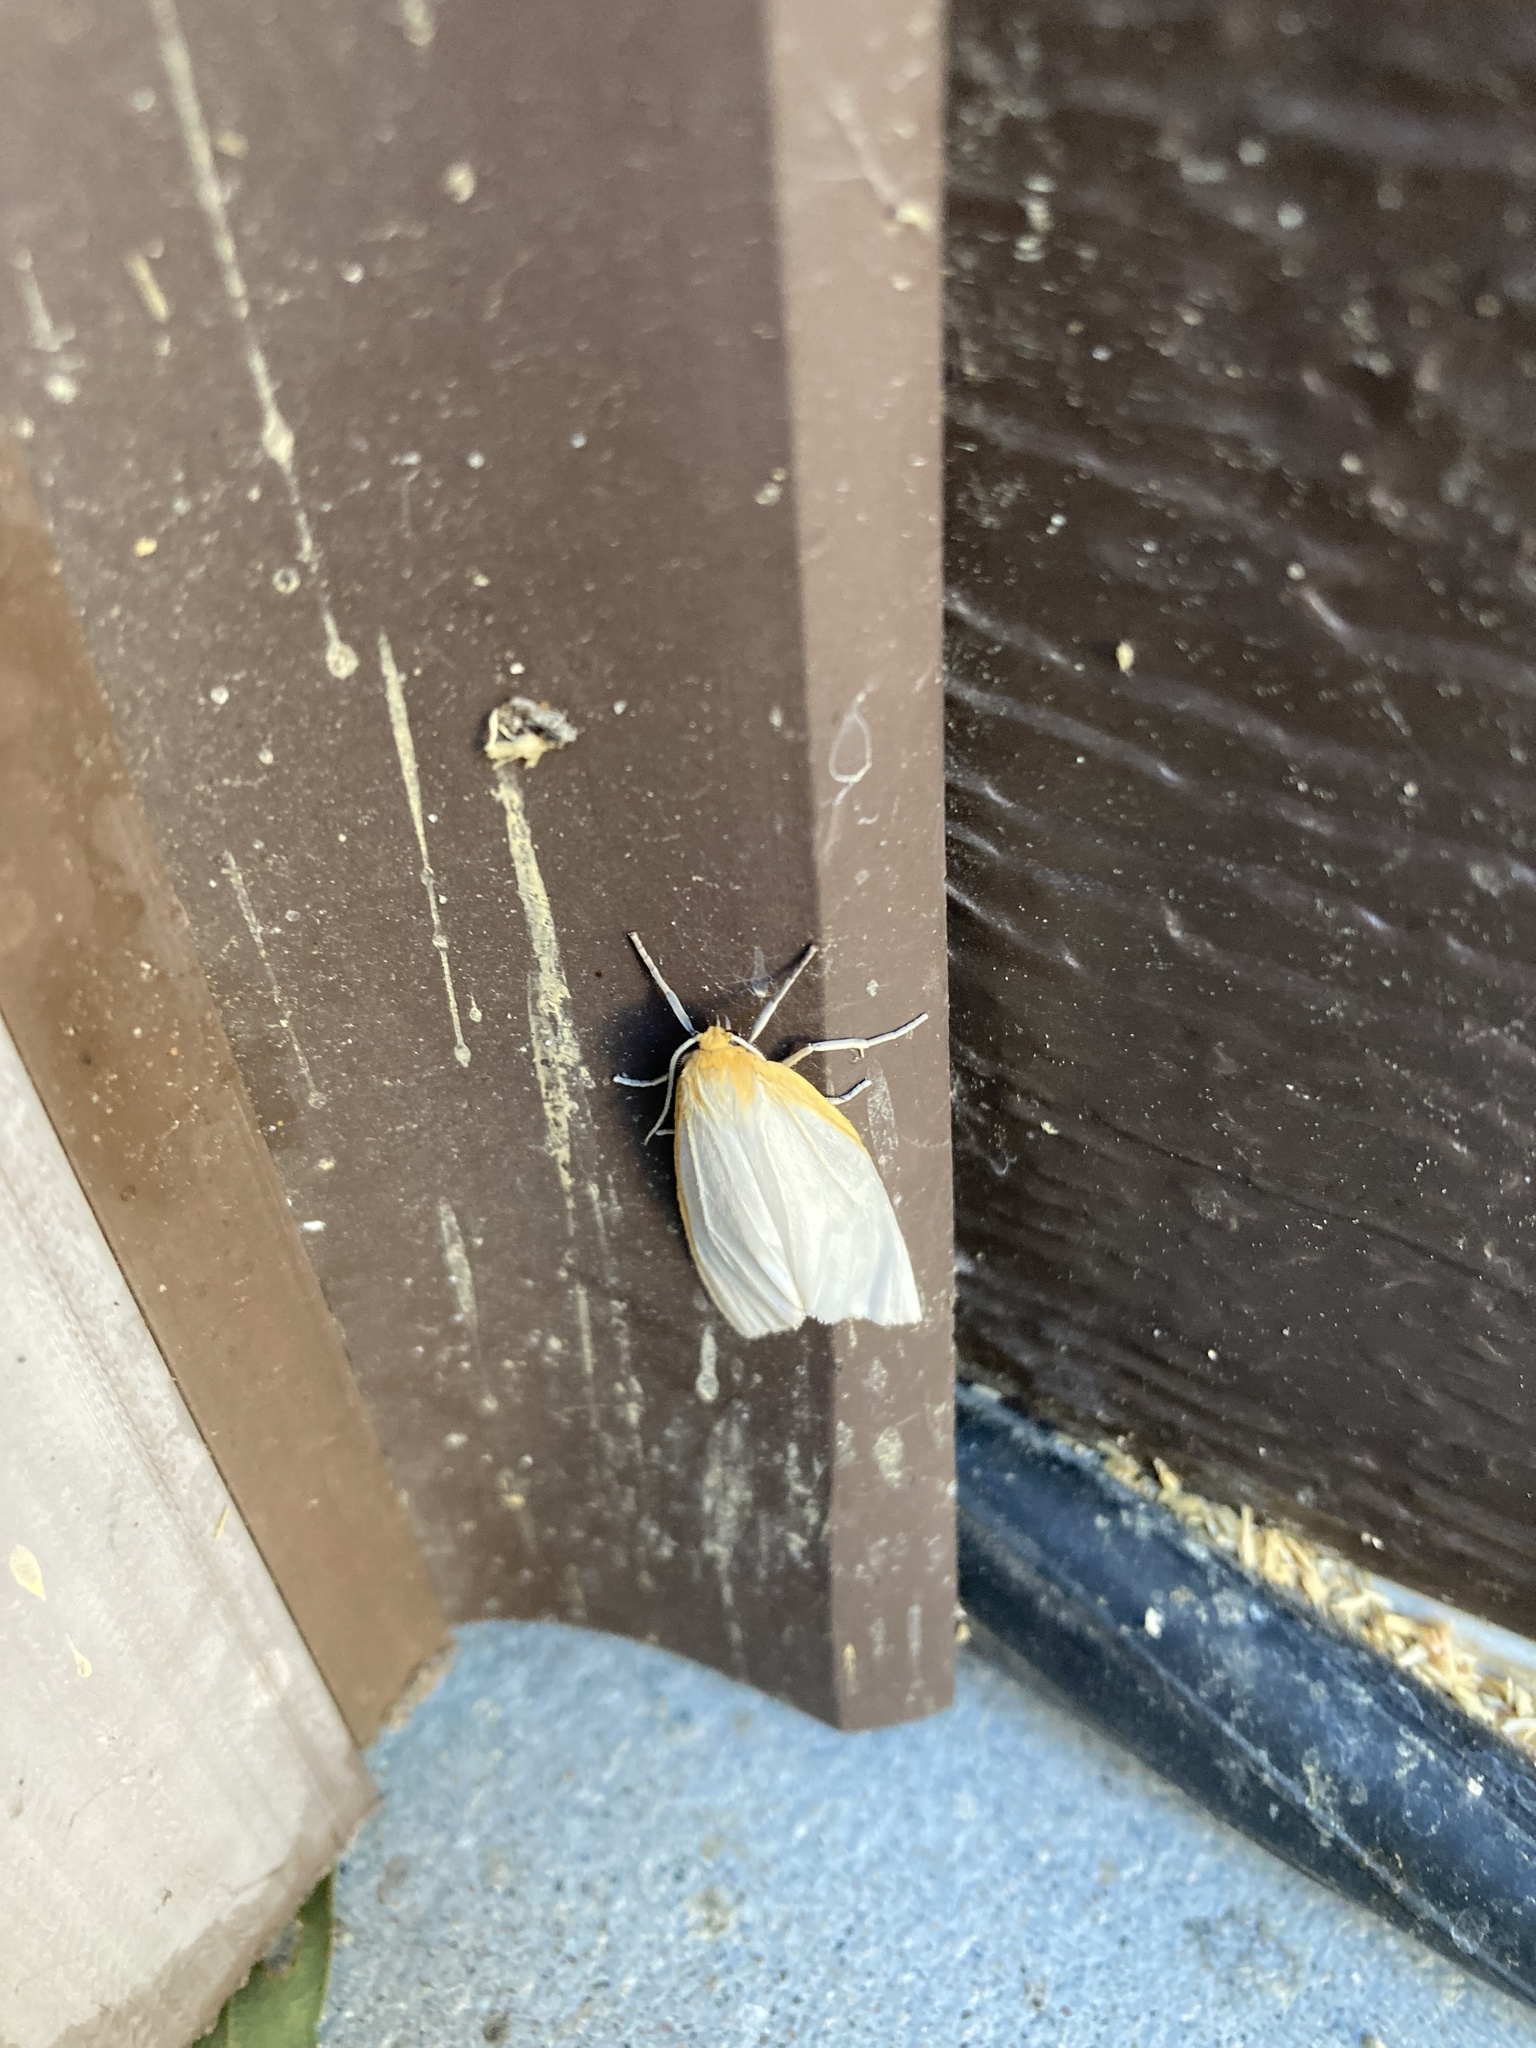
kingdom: Animalia
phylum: Arthropoda
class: Insecta
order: Lepidoptera
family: Erebidae
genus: Cycnia
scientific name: Cycnia tenera
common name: Delicate cycnia moth
